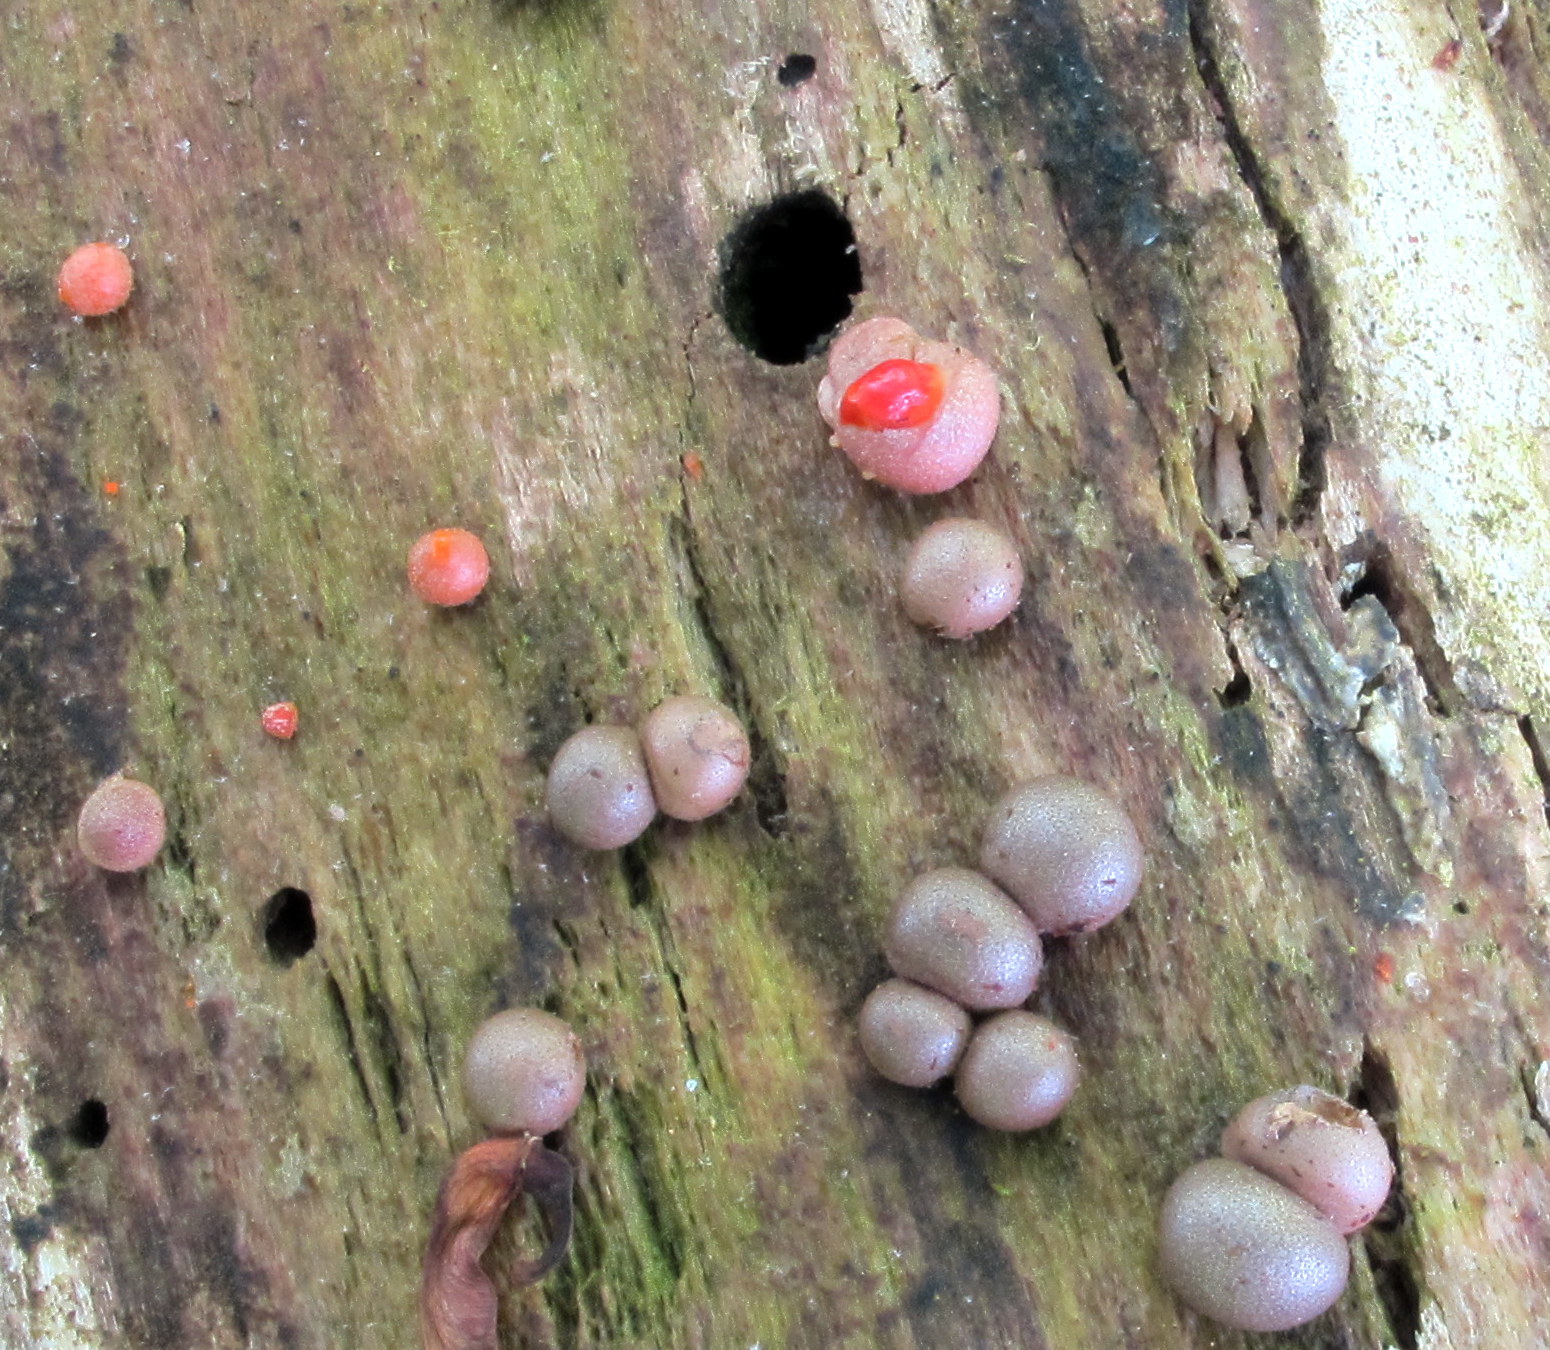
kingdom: Protozoa
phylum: Mycetozoa
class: Myxomycetes
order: Cribrariales
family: Tubiferaceae
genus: Lycogala
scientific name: Lycogala epidendrum
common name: Wolf's milk
